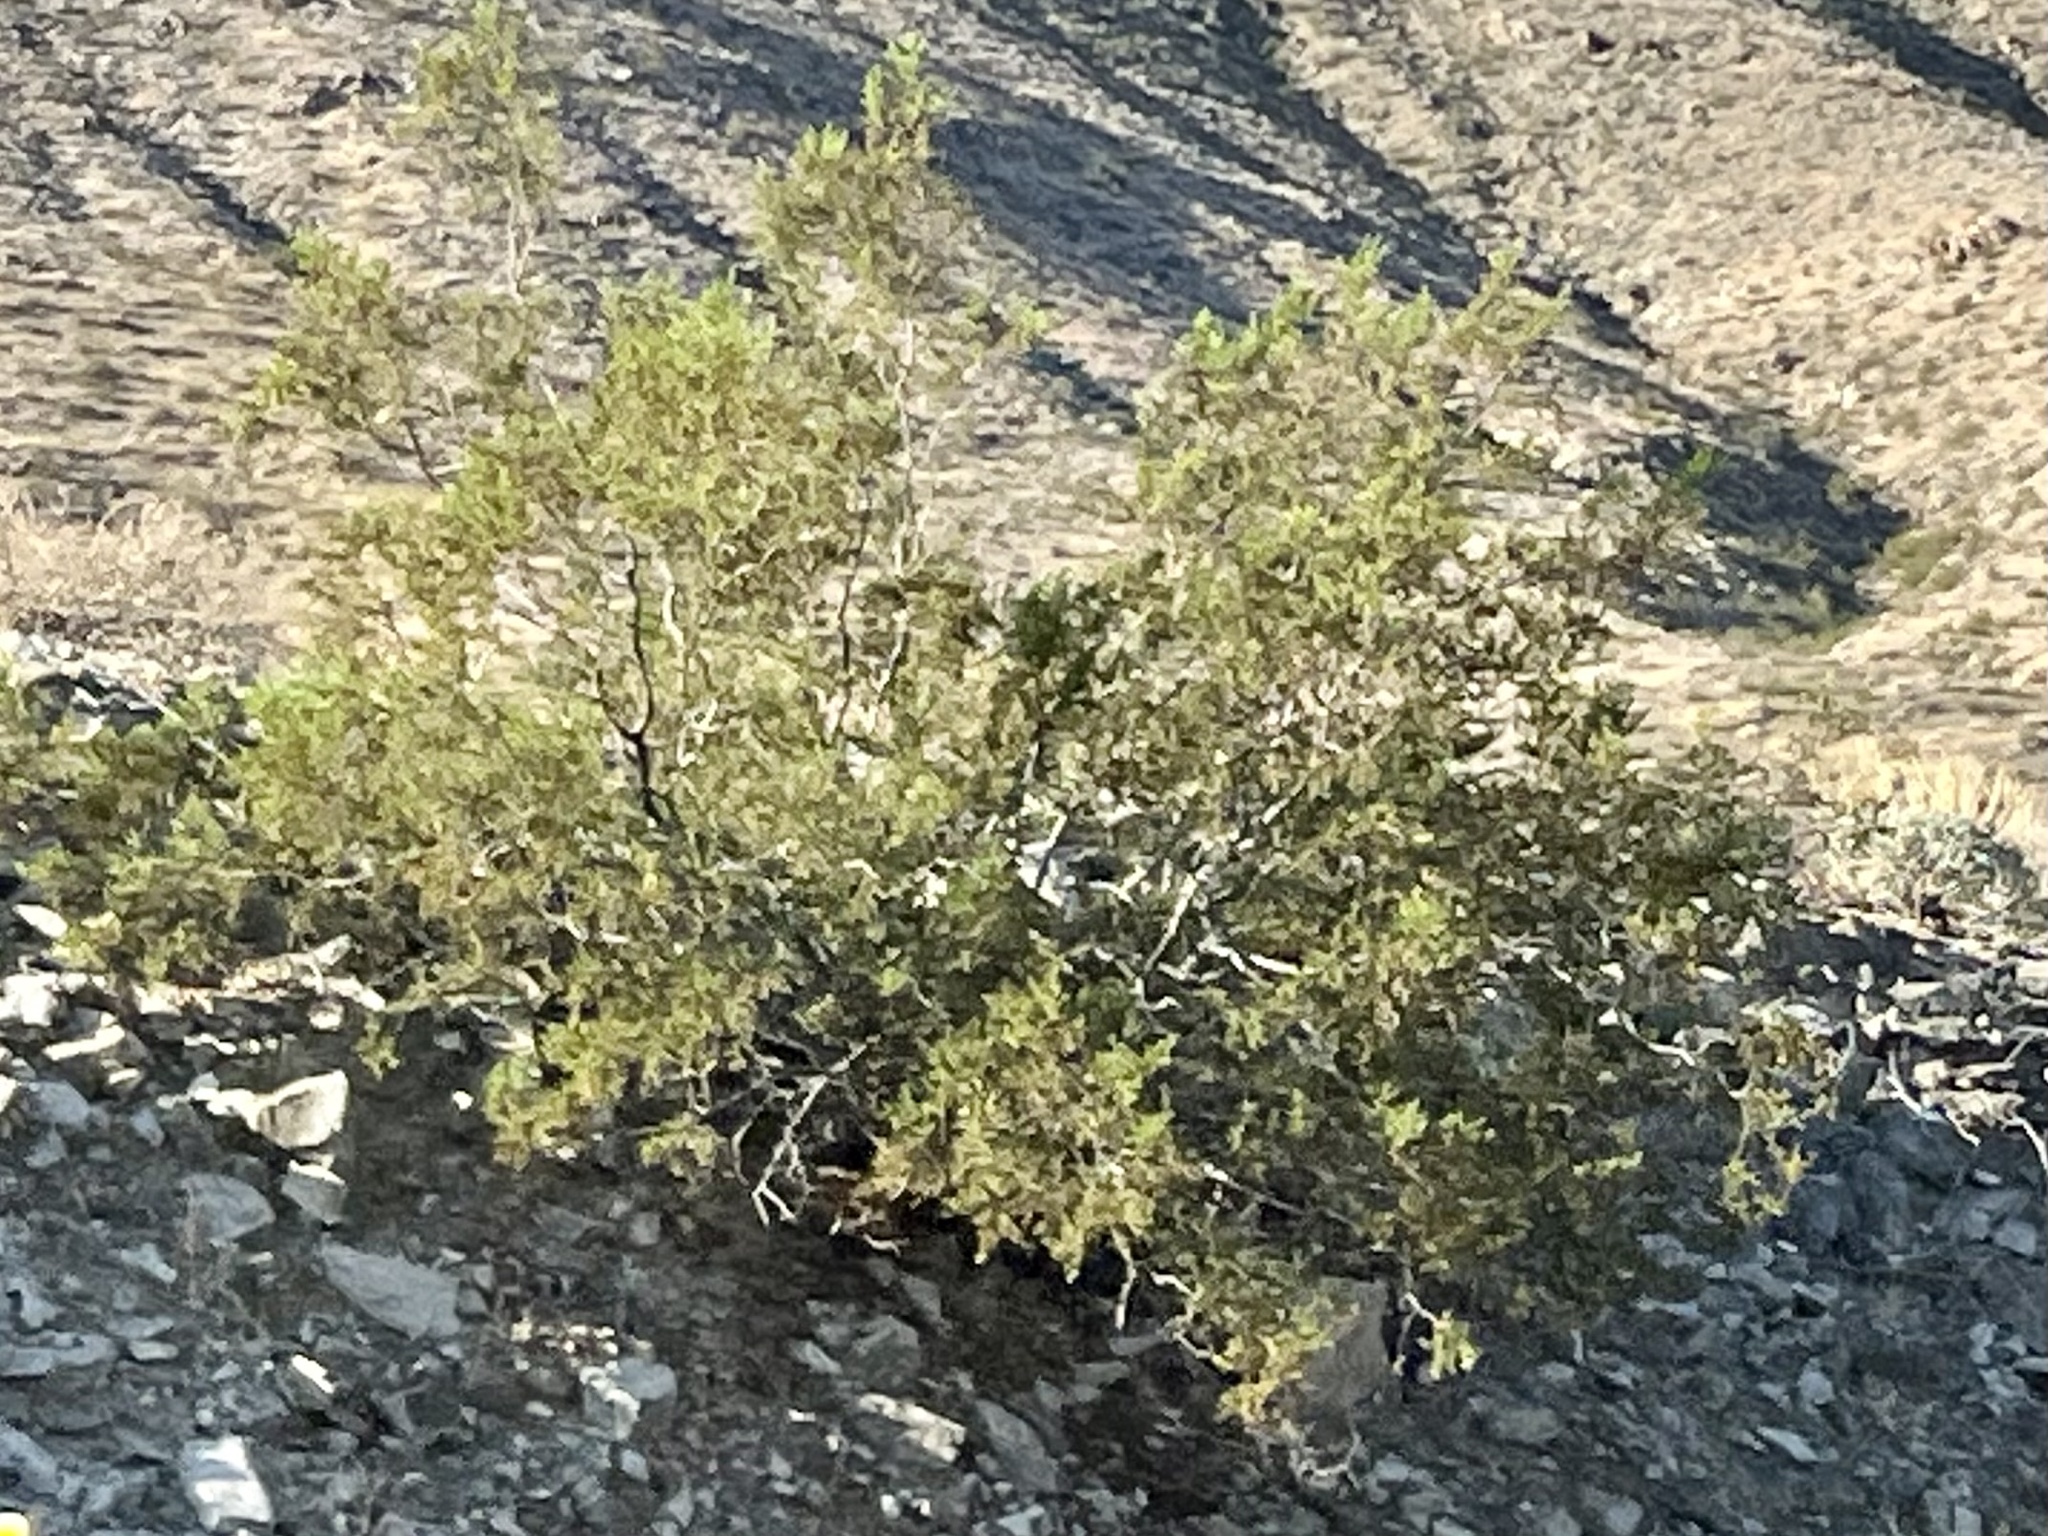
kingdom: Plantae
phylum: Tracheophyta
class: Magnoliopsida
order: Zygophyllales
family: Zygophyllaceae
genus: Larrea
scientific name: Larrea tridentata
